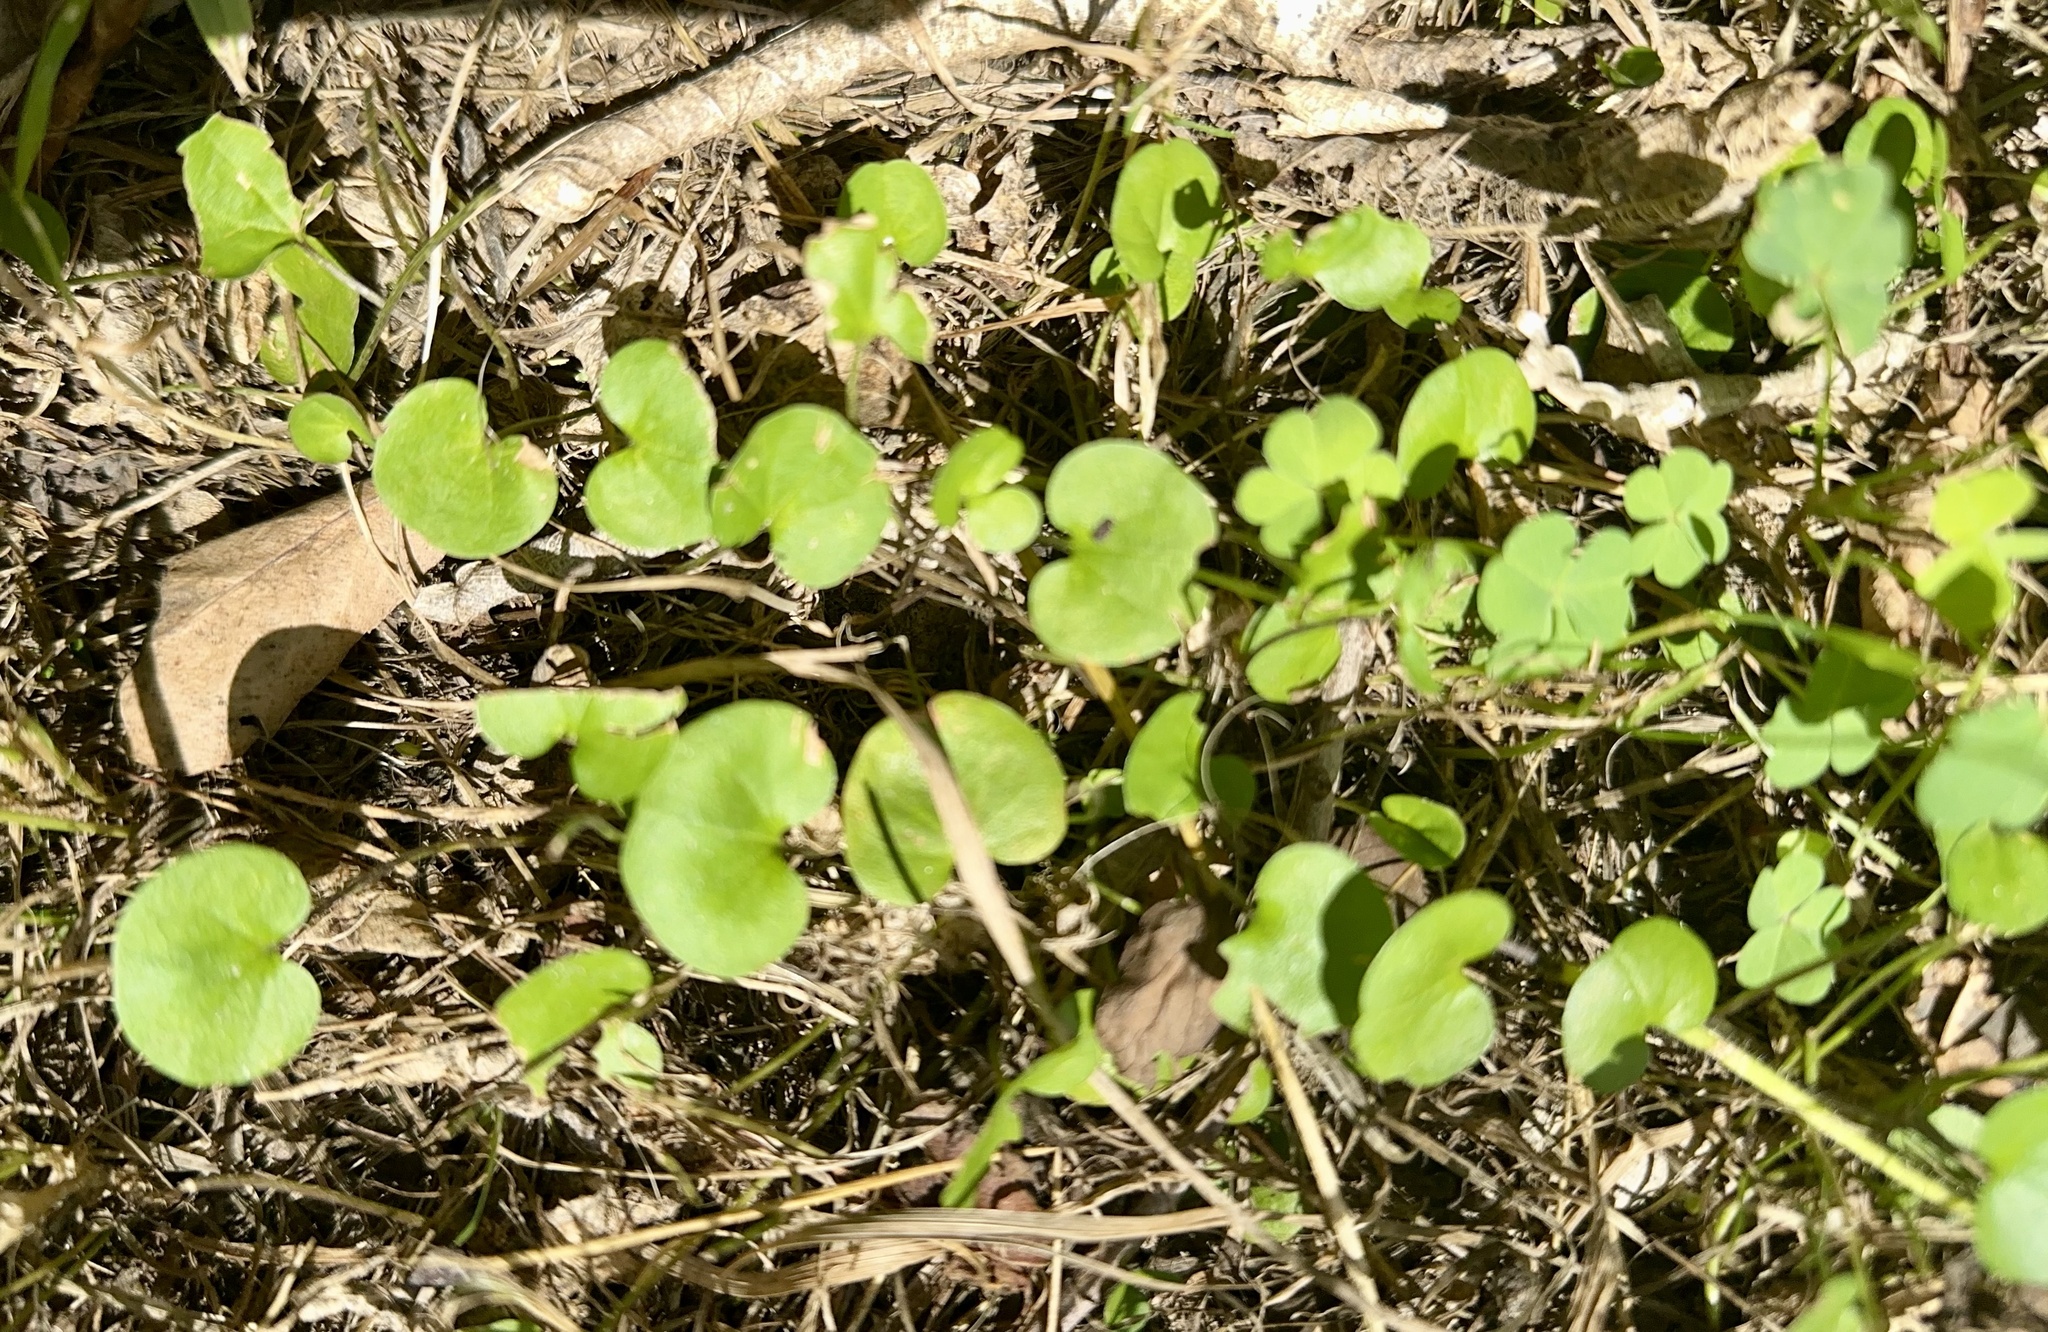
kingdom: Plantae
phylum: Tracheophyta
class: Magnoliopsida
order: Solanales
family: Convolvulaceae
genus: Dichondra
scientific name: Dichondra repens
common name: Kidneyweed
